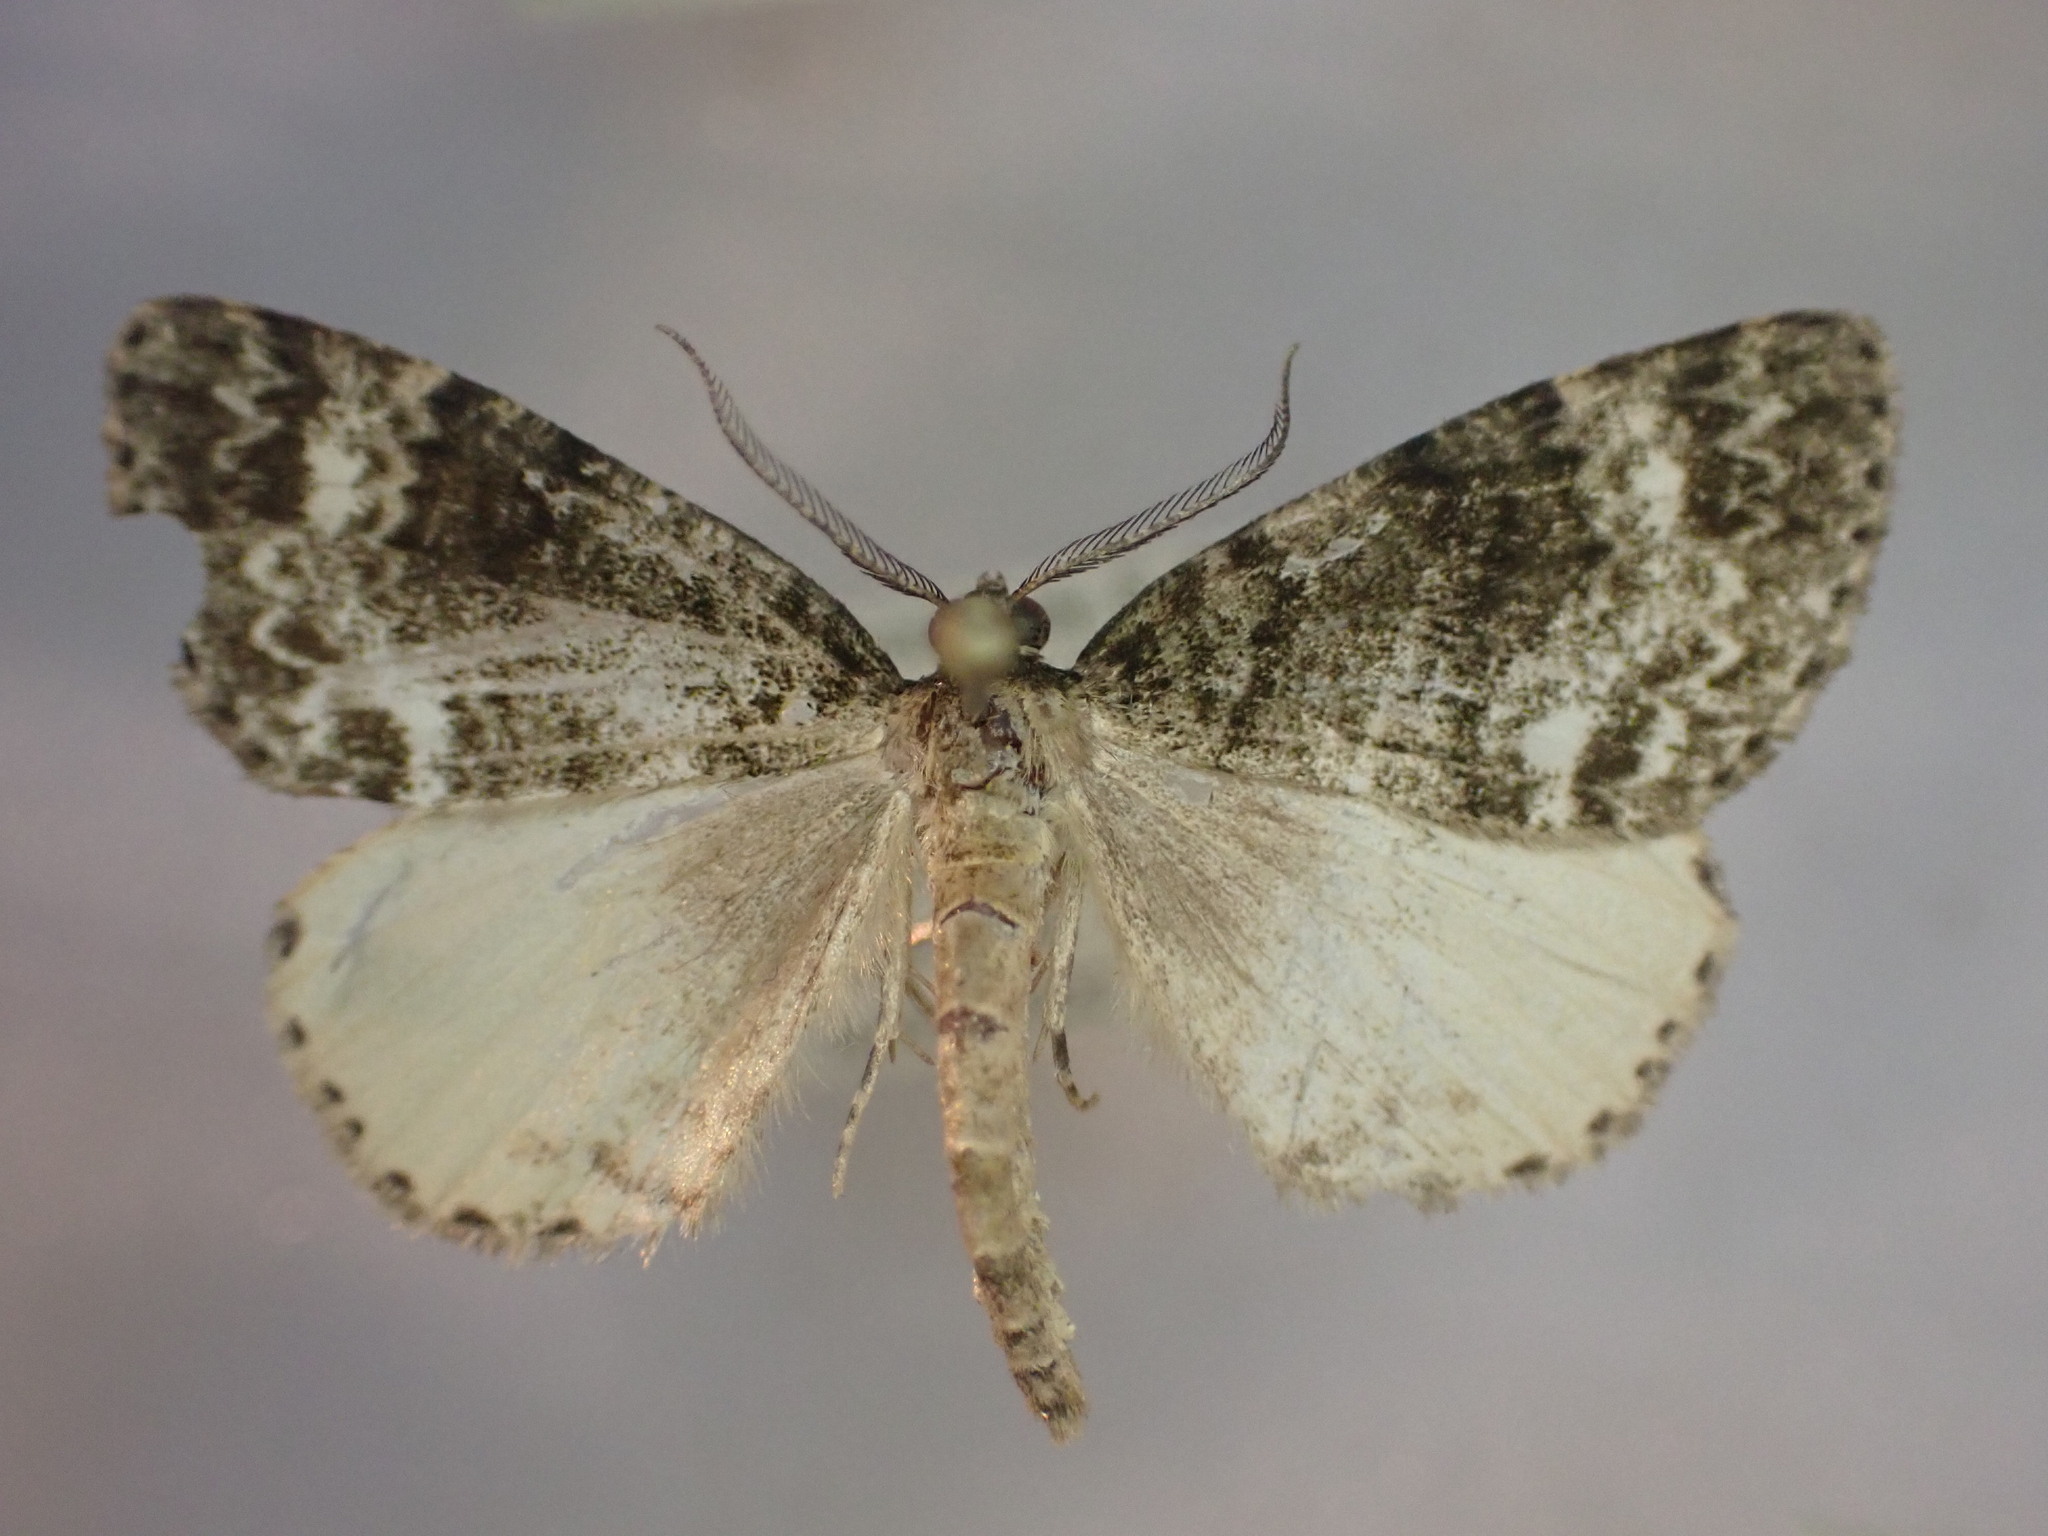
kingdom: Animalia
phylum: Arthropoda
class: Insecta
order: Lepidoptera
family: Geometridae
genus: Pseudocoremia
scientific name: Pseudocoremia indistincta
